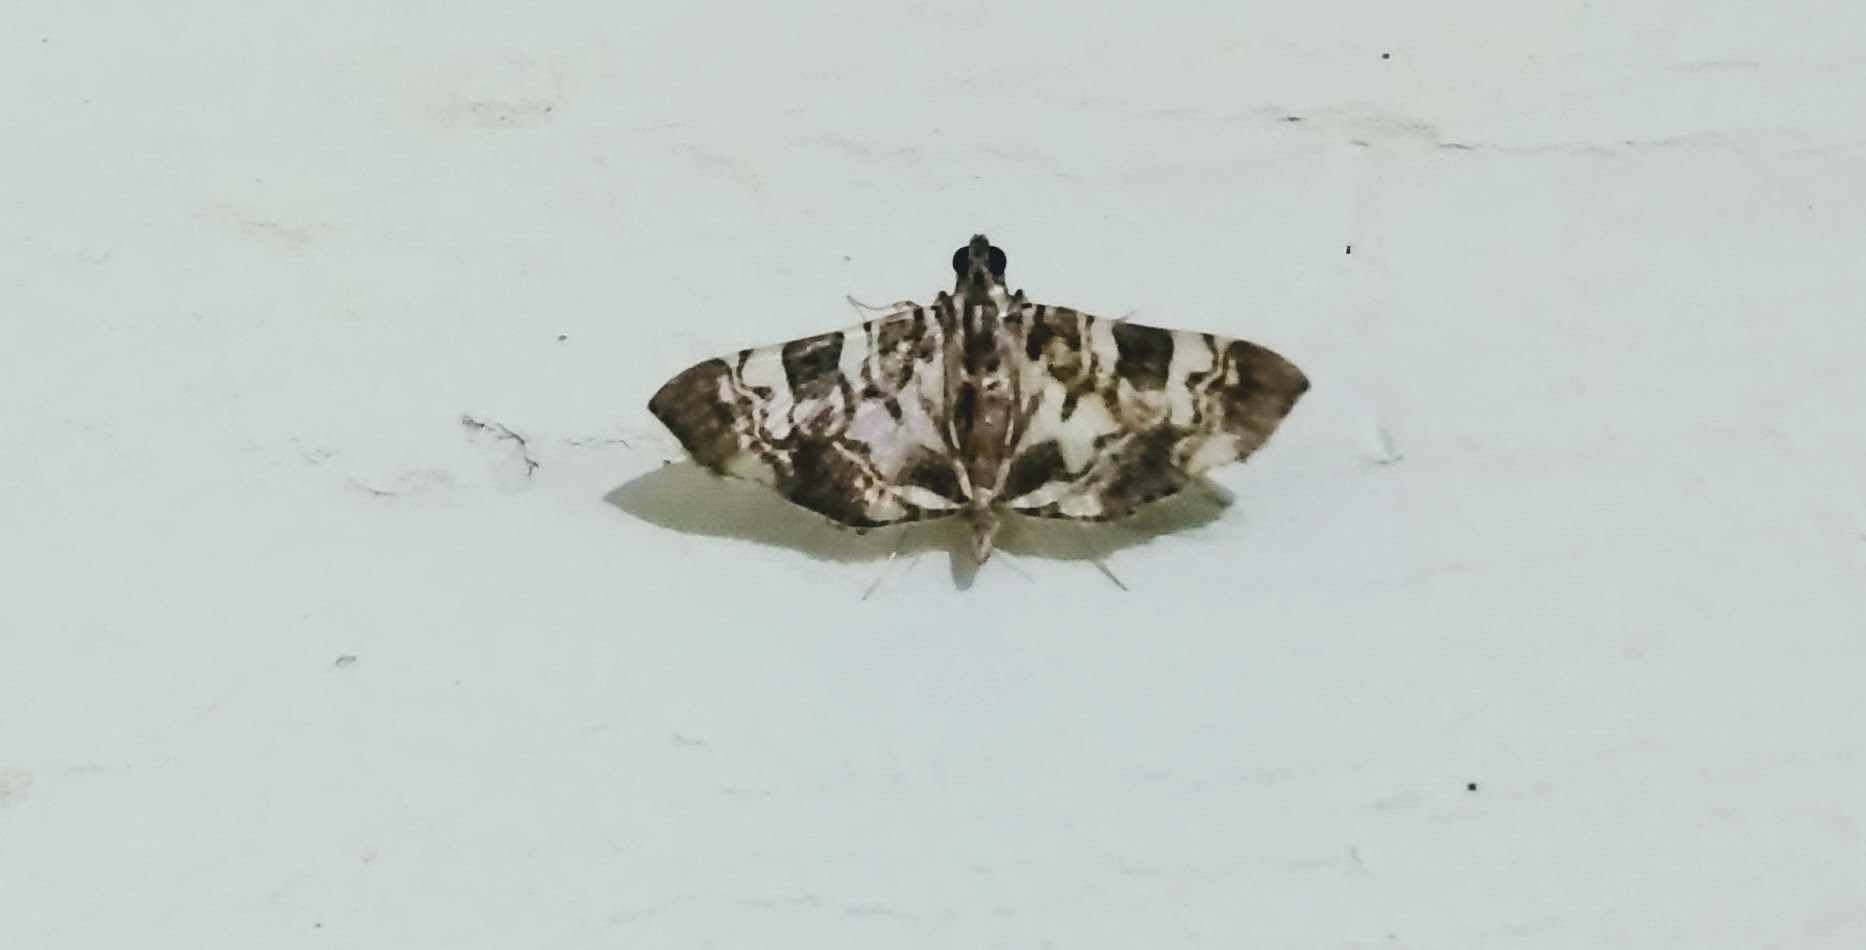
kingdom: Animalia
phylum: Arthropoda
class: Insecta
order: Lepidoptera
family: Crambidae
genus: Chabula
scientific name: Chabula acamasalis
